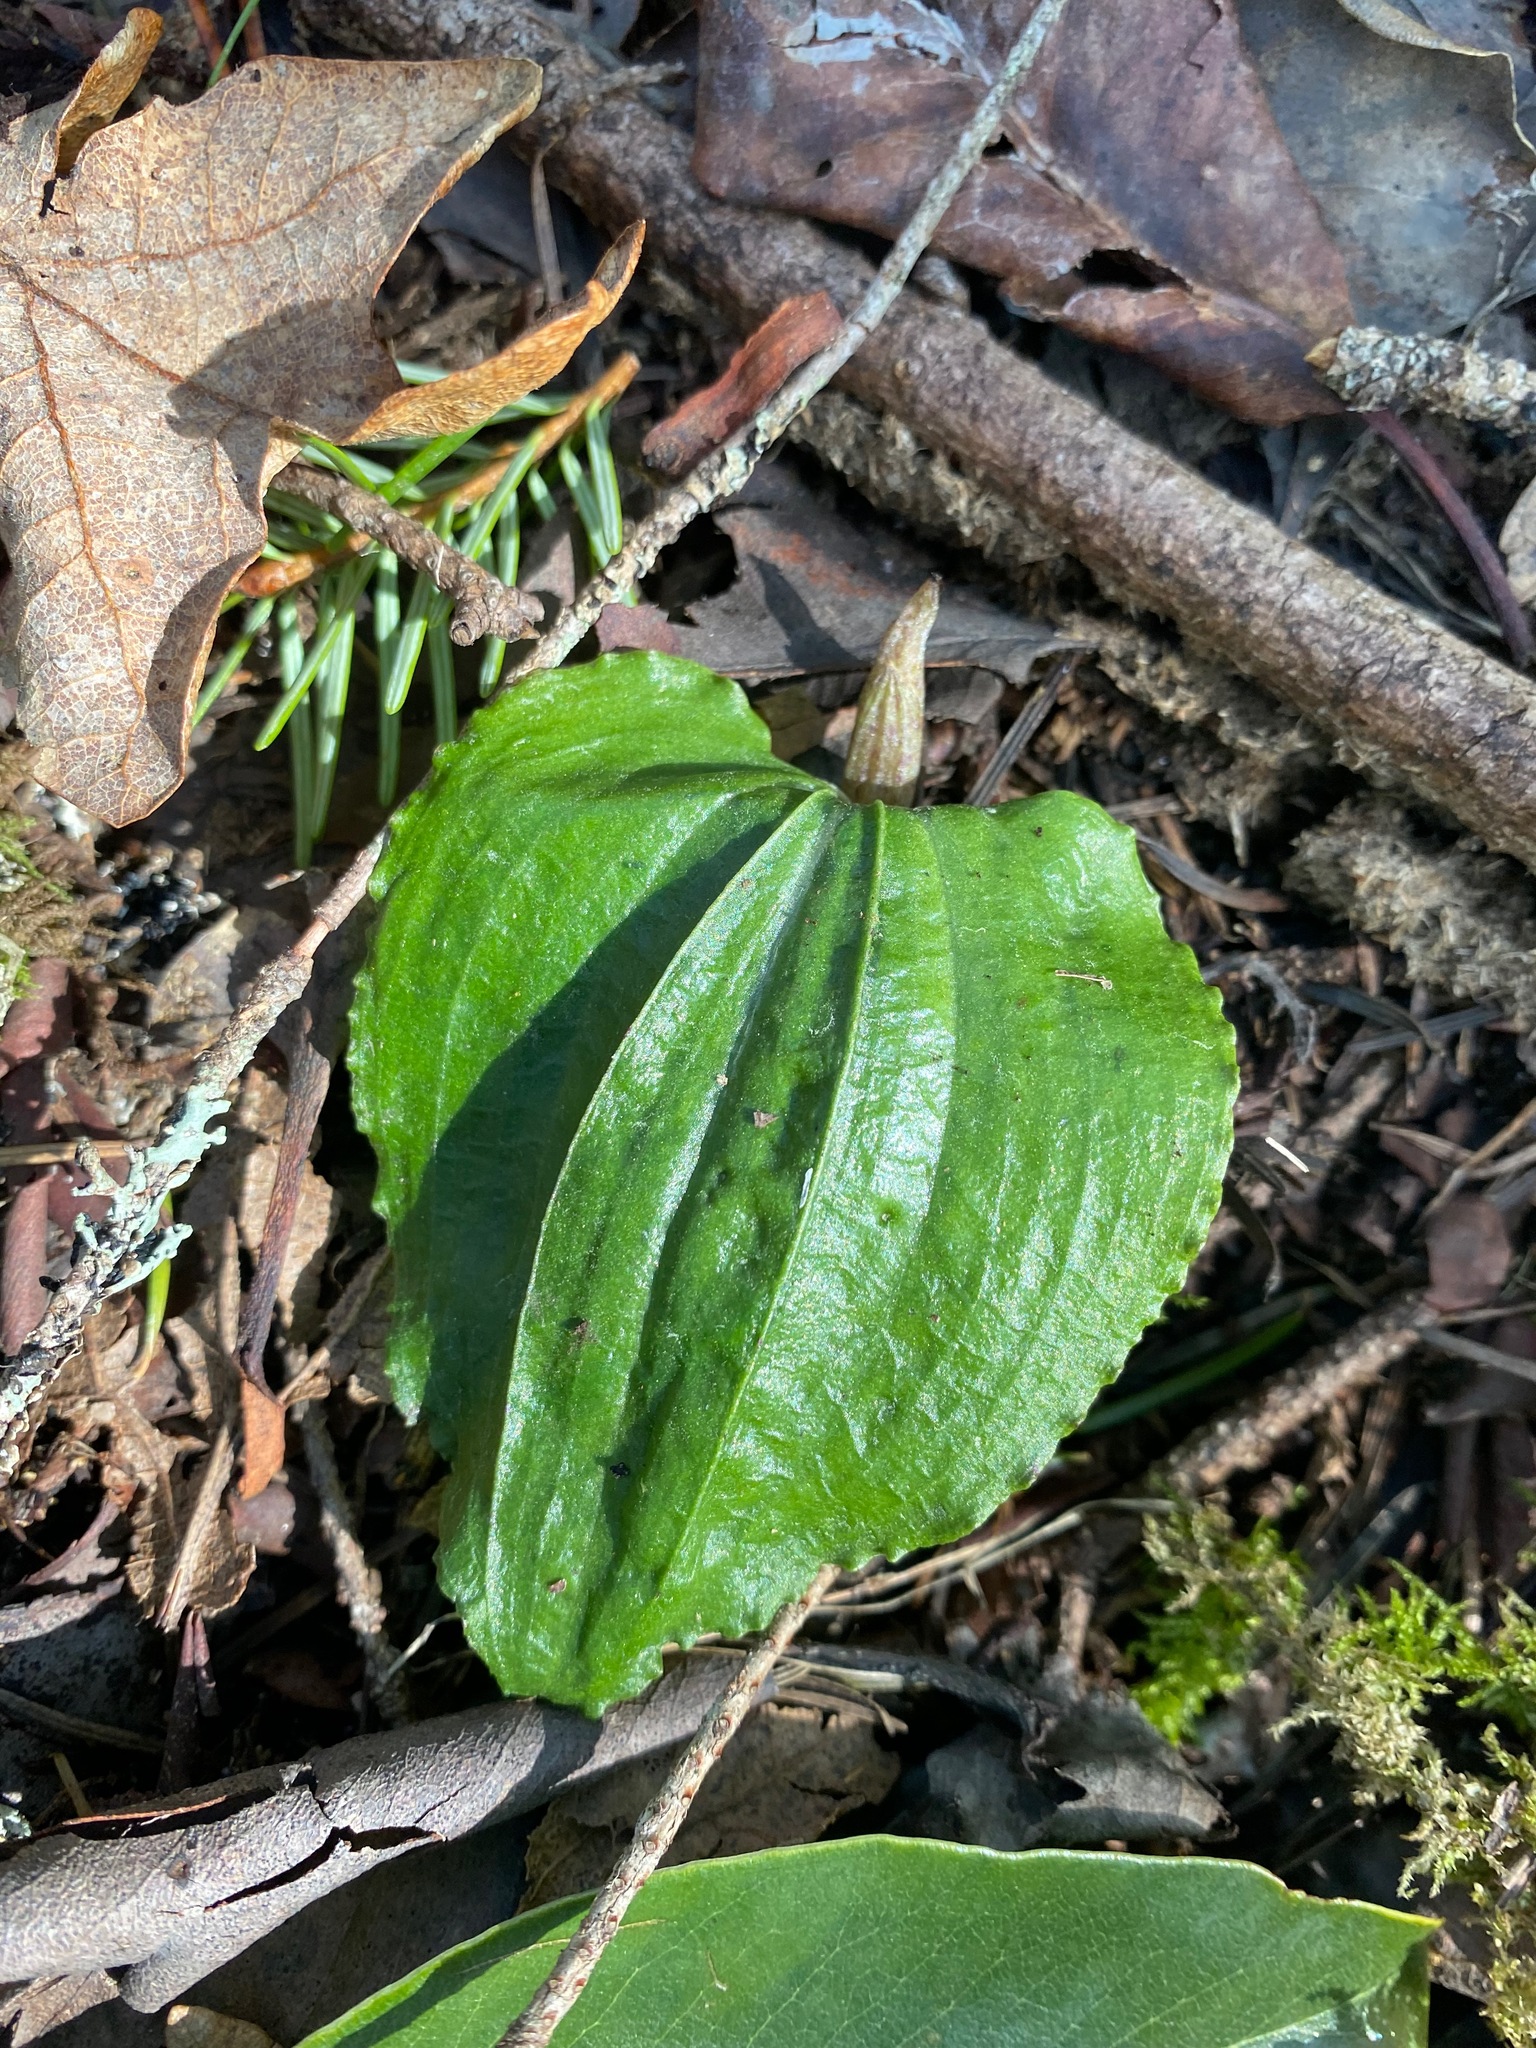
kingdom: Plantae
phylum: Tracheophyta
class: Liliopsida
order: Asparagales
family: Orchidaceae
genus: Calypso
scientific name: Calypso bulbosa
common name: Calypso
